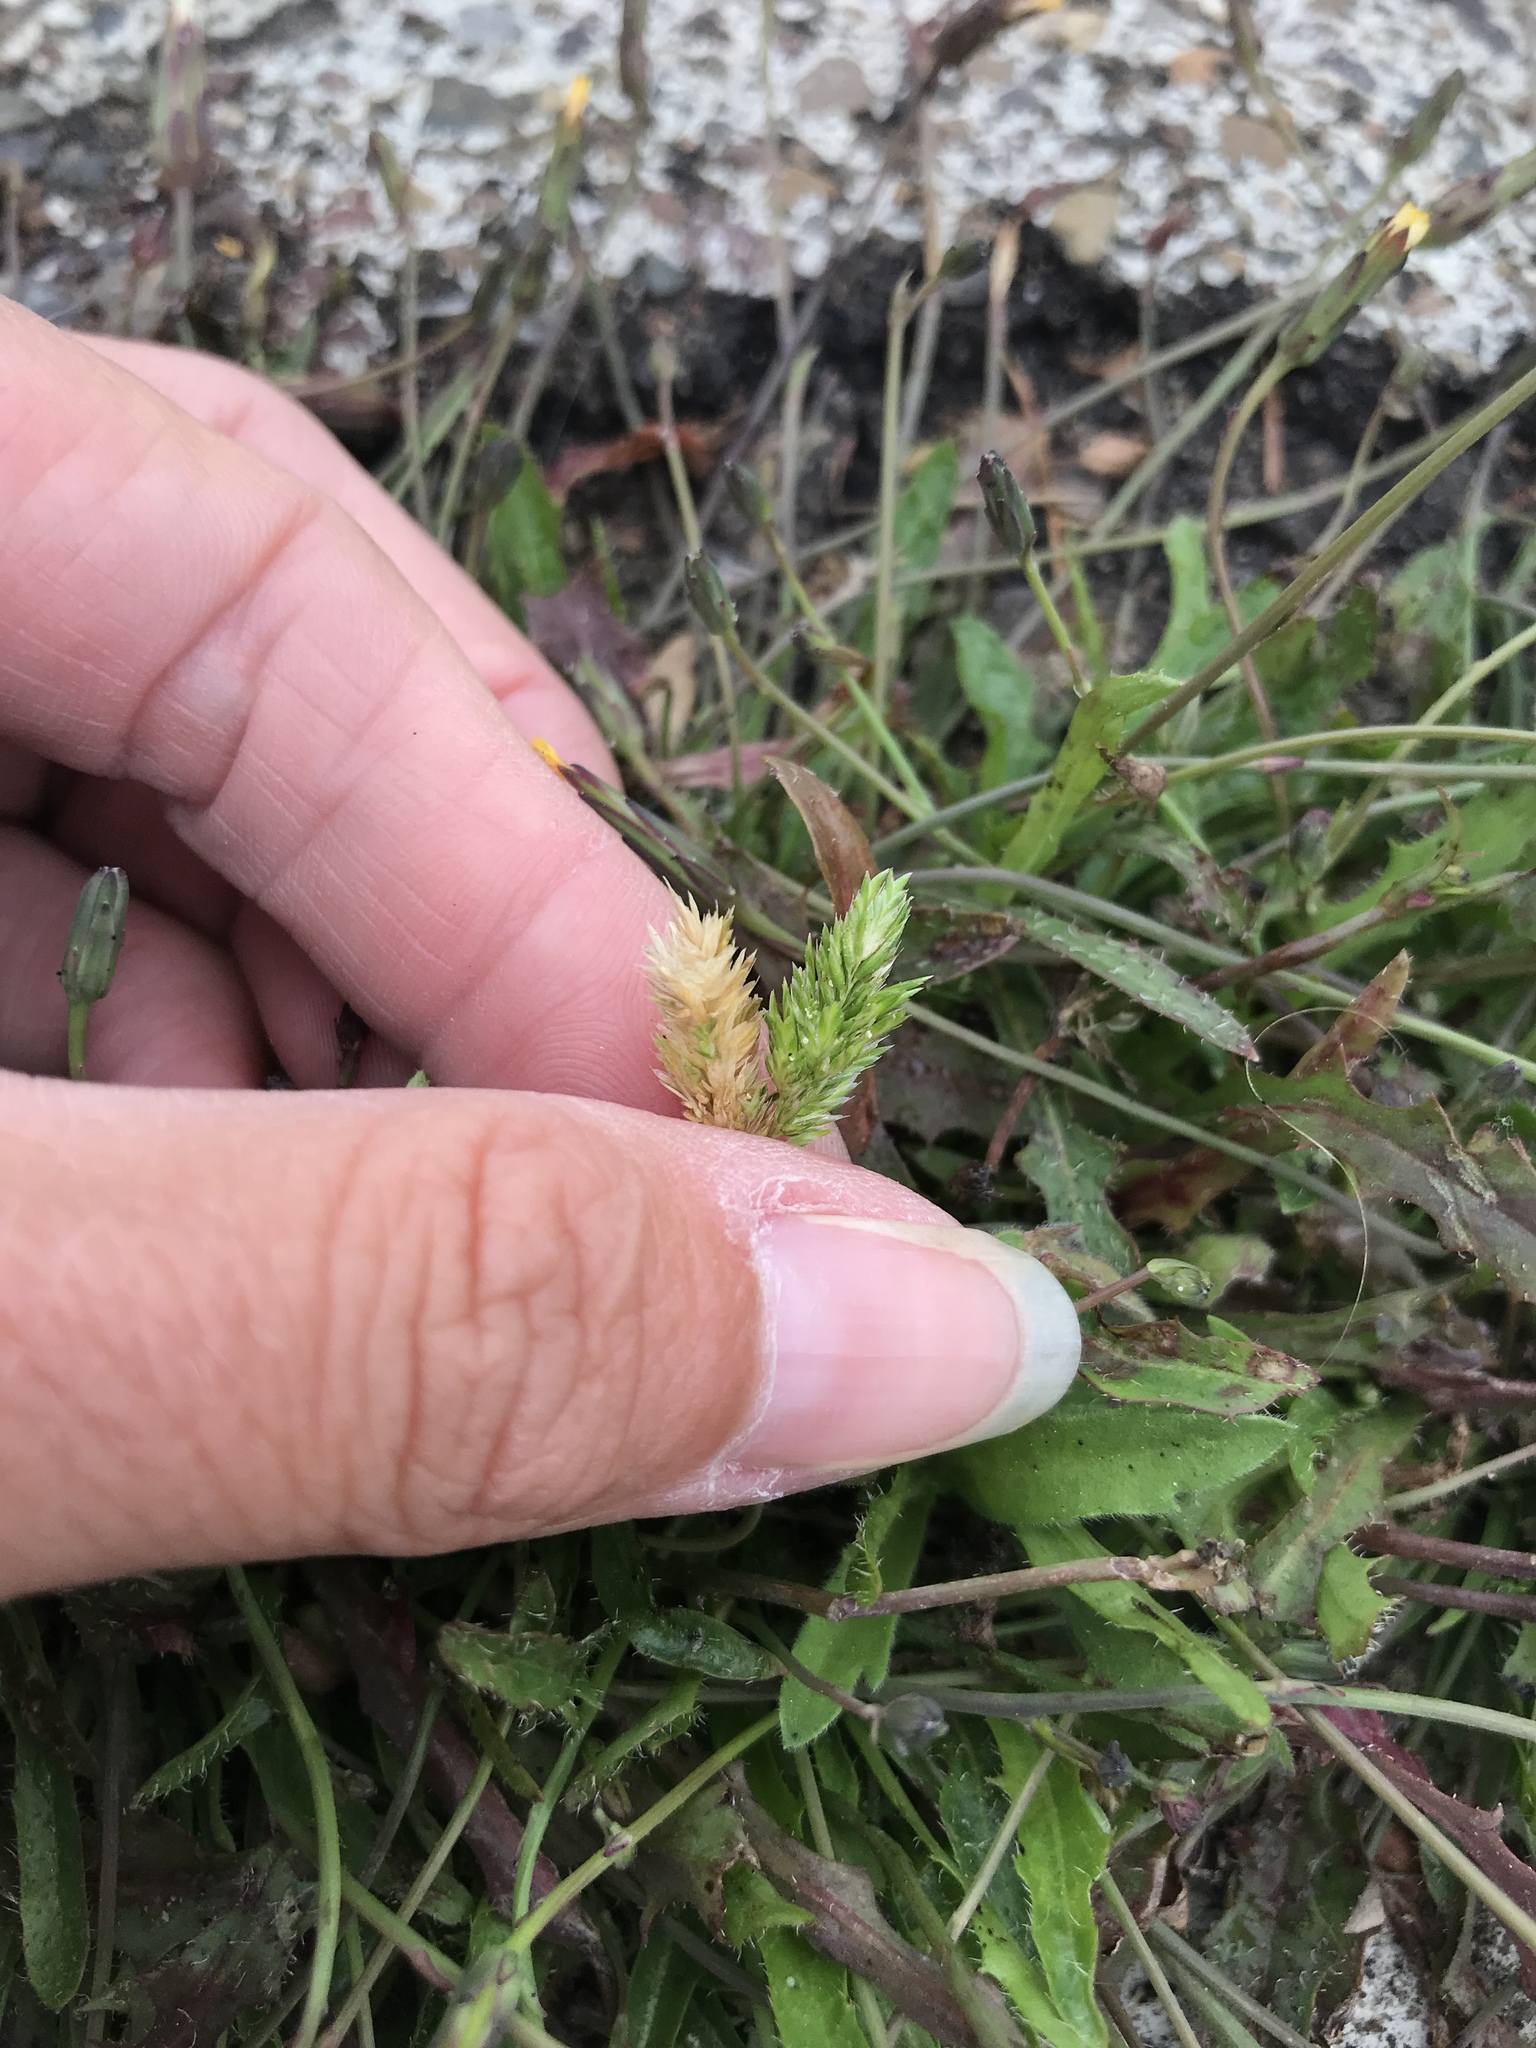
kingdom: Plantae
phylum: Tracheophyta
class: Liliopsida
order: Poales
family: Poaceae
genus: Rostraria
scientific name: Rostraria cristata
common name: Mediterranean hair-grass
